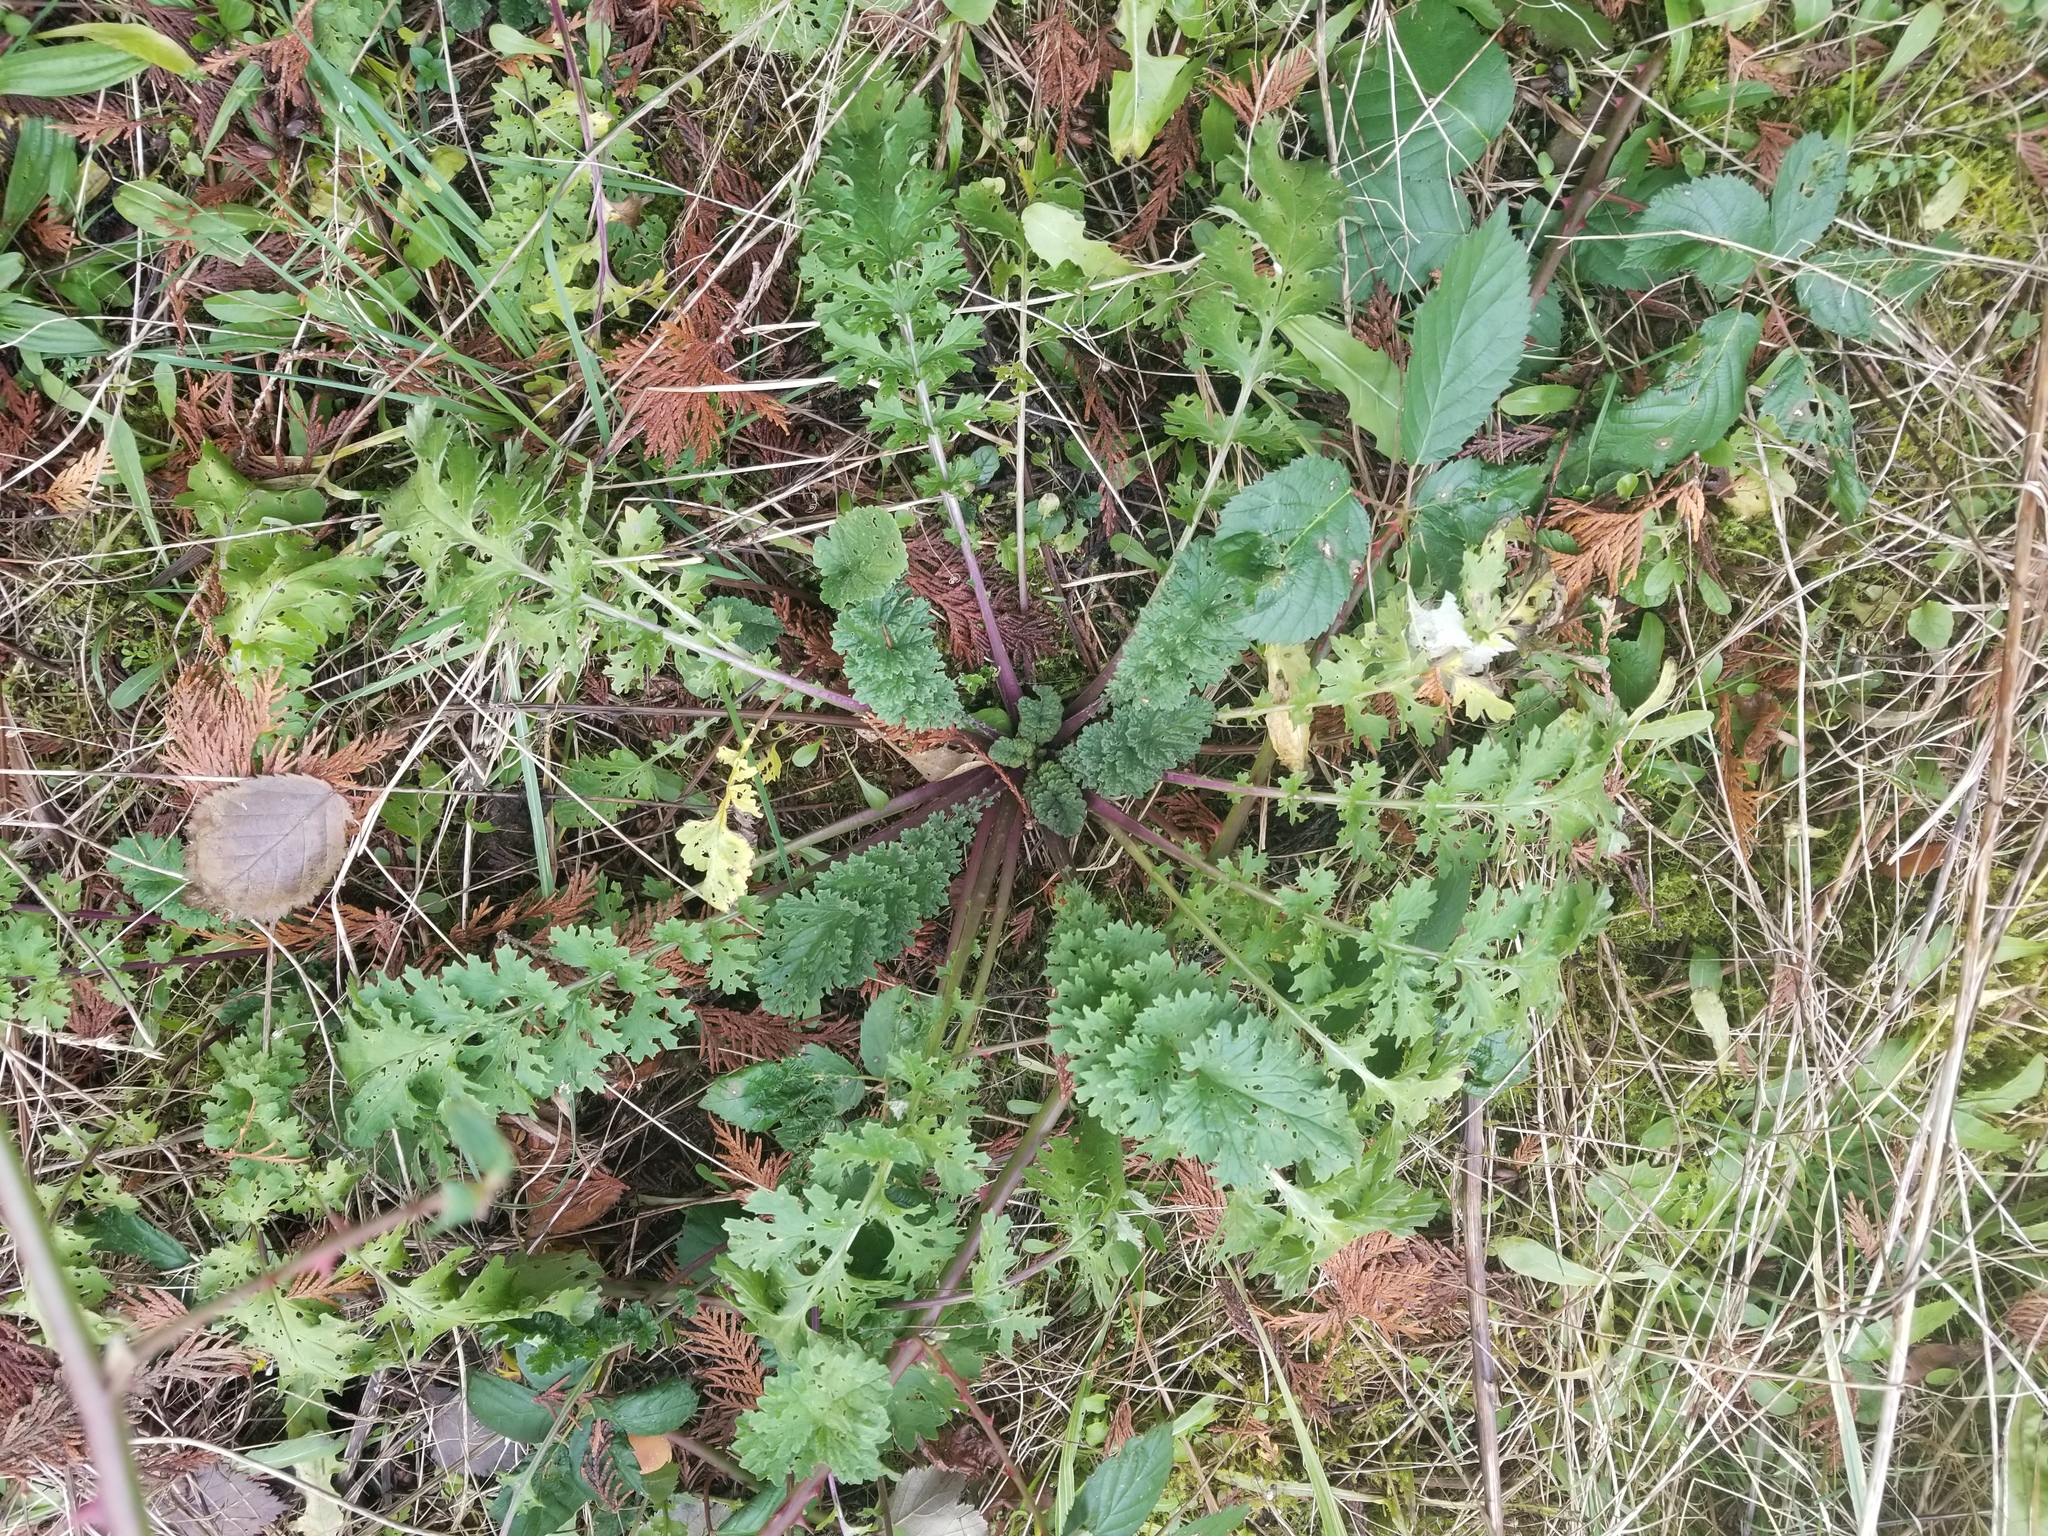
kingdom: Plantae
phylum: Tracheophyta
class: Magnoliopsida
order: Asterales
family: Asteraceae
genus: Jacobaea
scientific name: Jacobaea vulgaris
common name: Stinking willie
